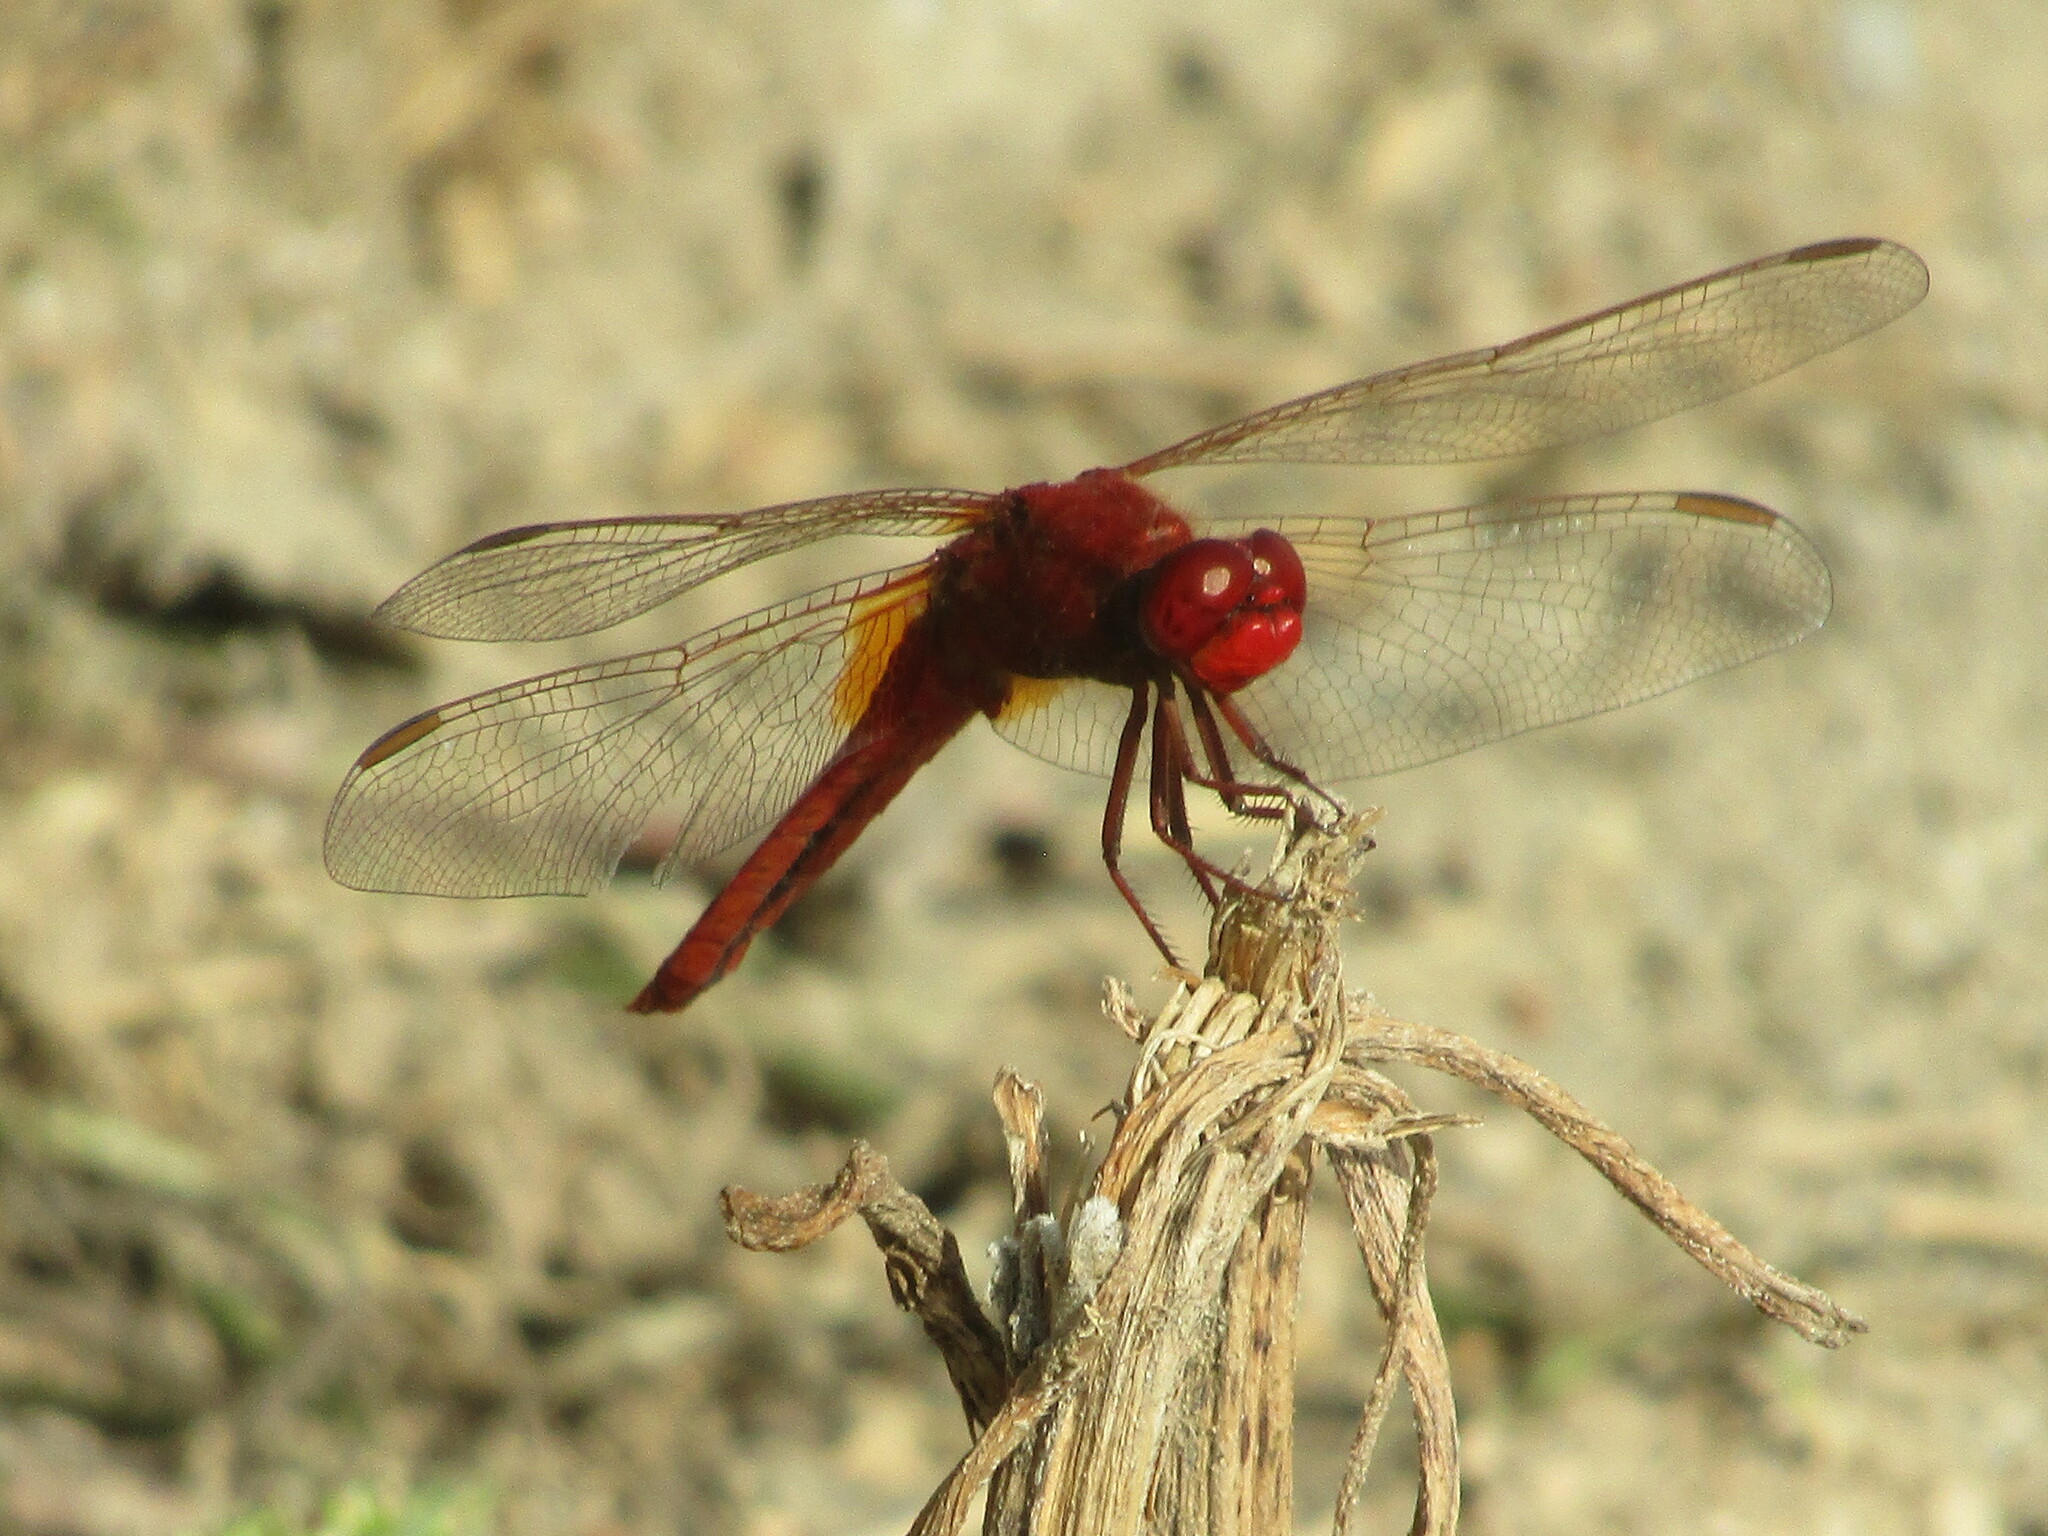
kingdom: Animalia
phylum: Arthropoda
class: Insecta
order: Odonata
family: Libellulidae
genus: Crocothemis
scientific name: Crocothemis erythraea
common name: Scarlet dragonfly
